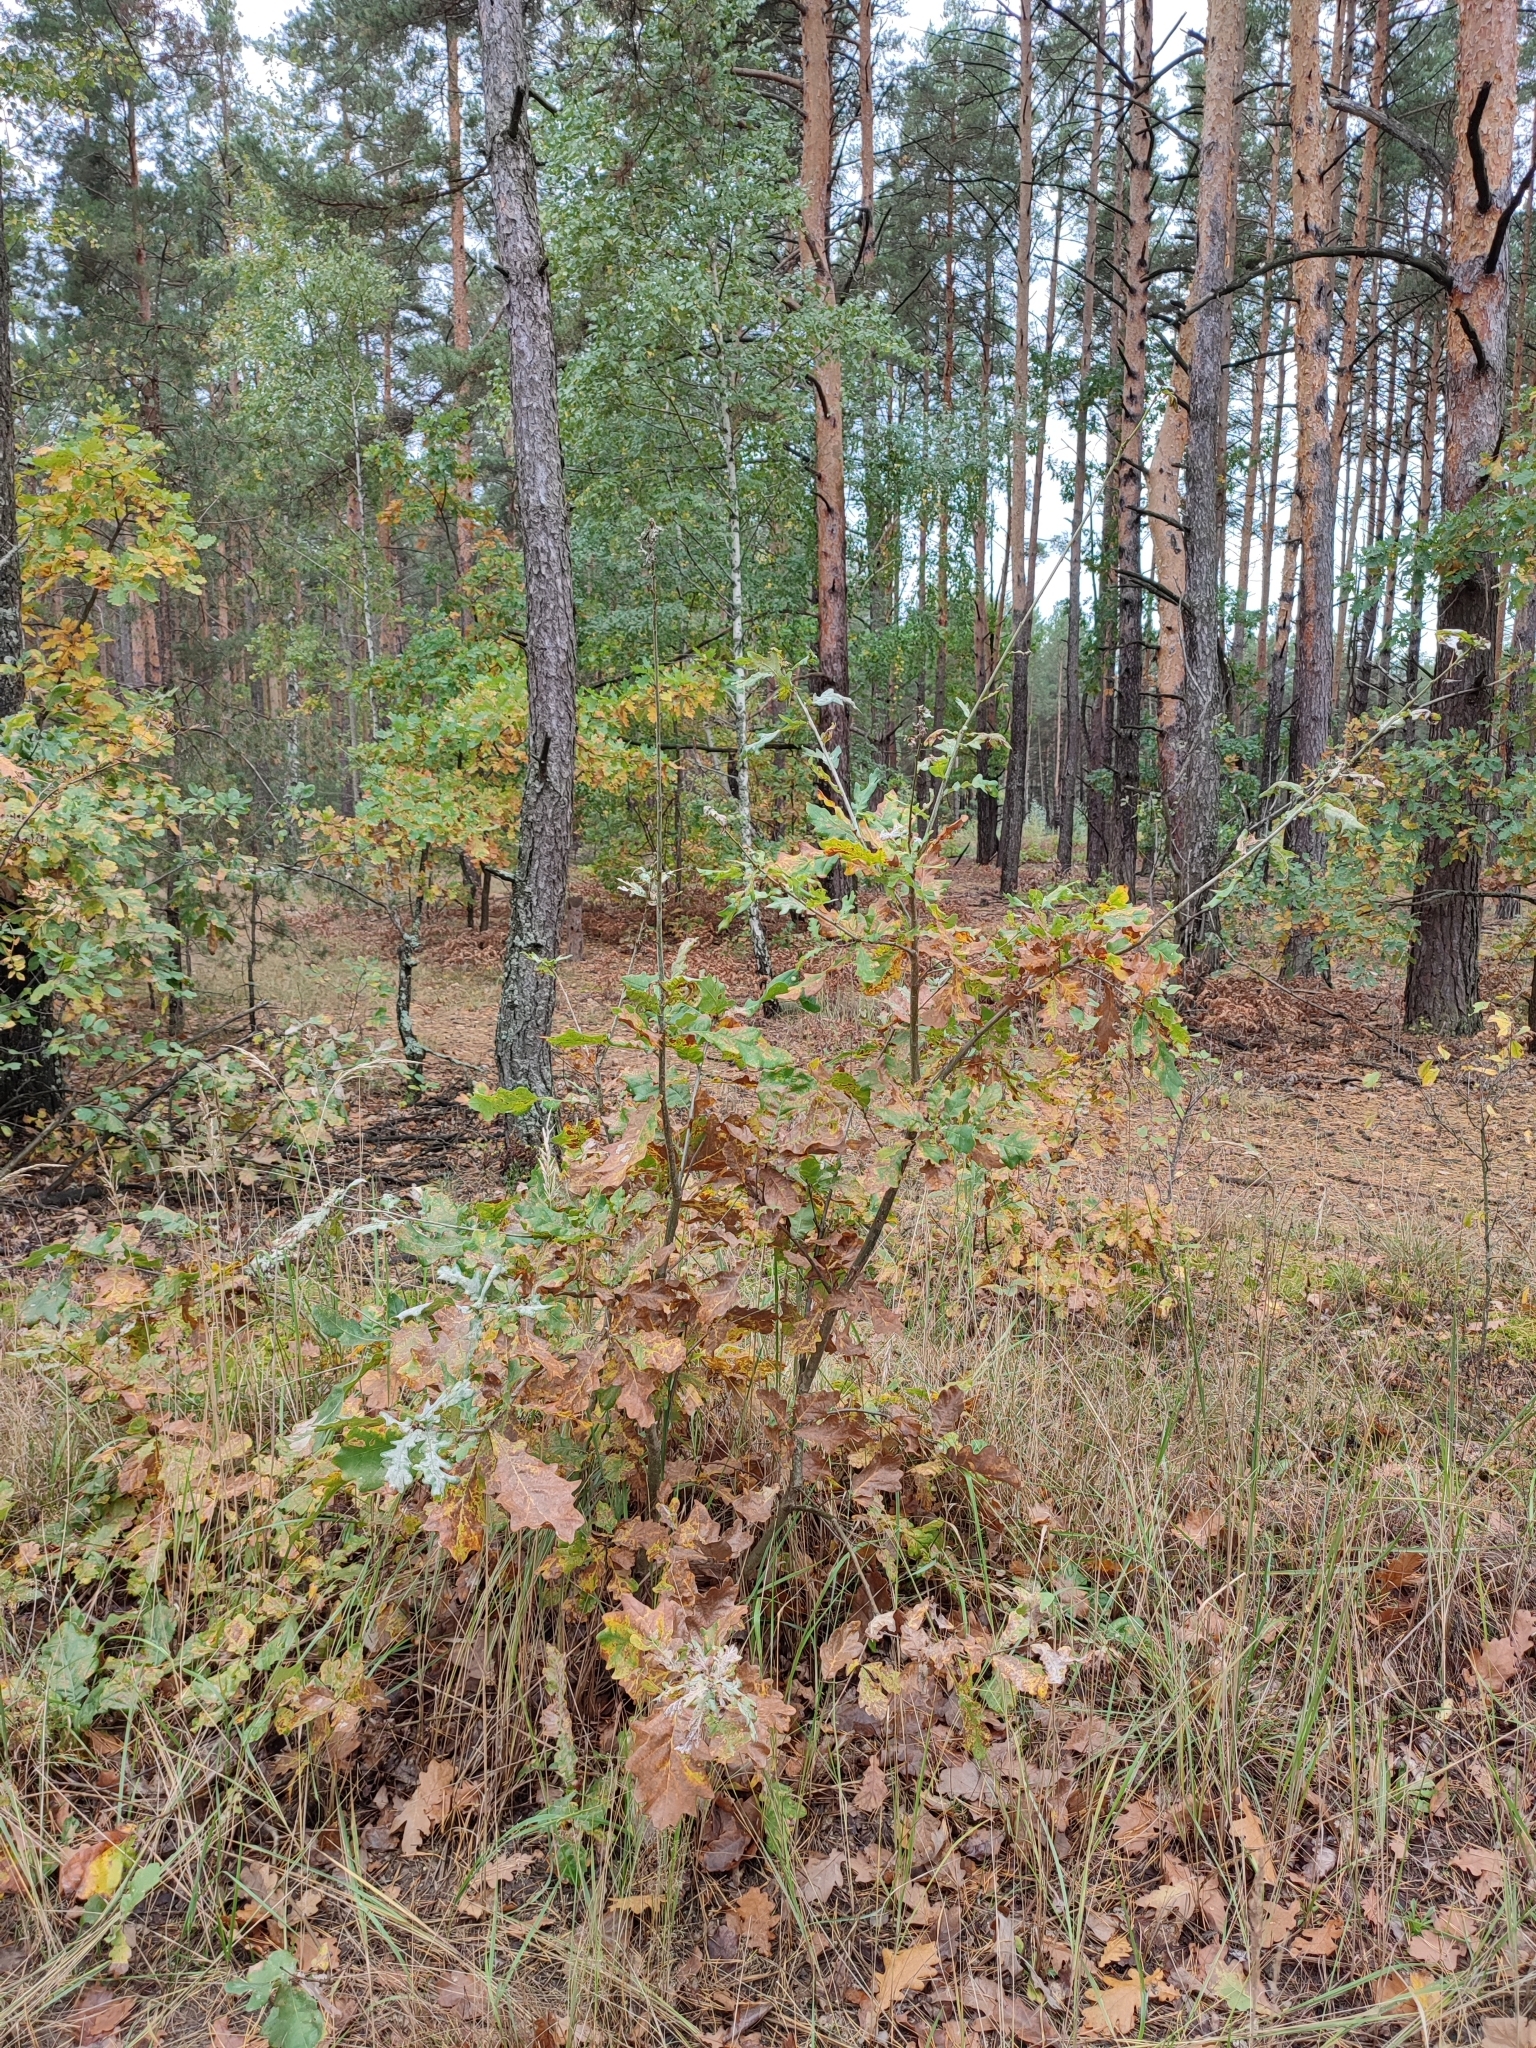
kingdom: Plantae
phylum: Tracheophyta
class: Magnoliopsida
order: Fagales
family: Fagaceae
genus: Quercus
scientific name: Quercus robur
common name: Pedunculate oak
